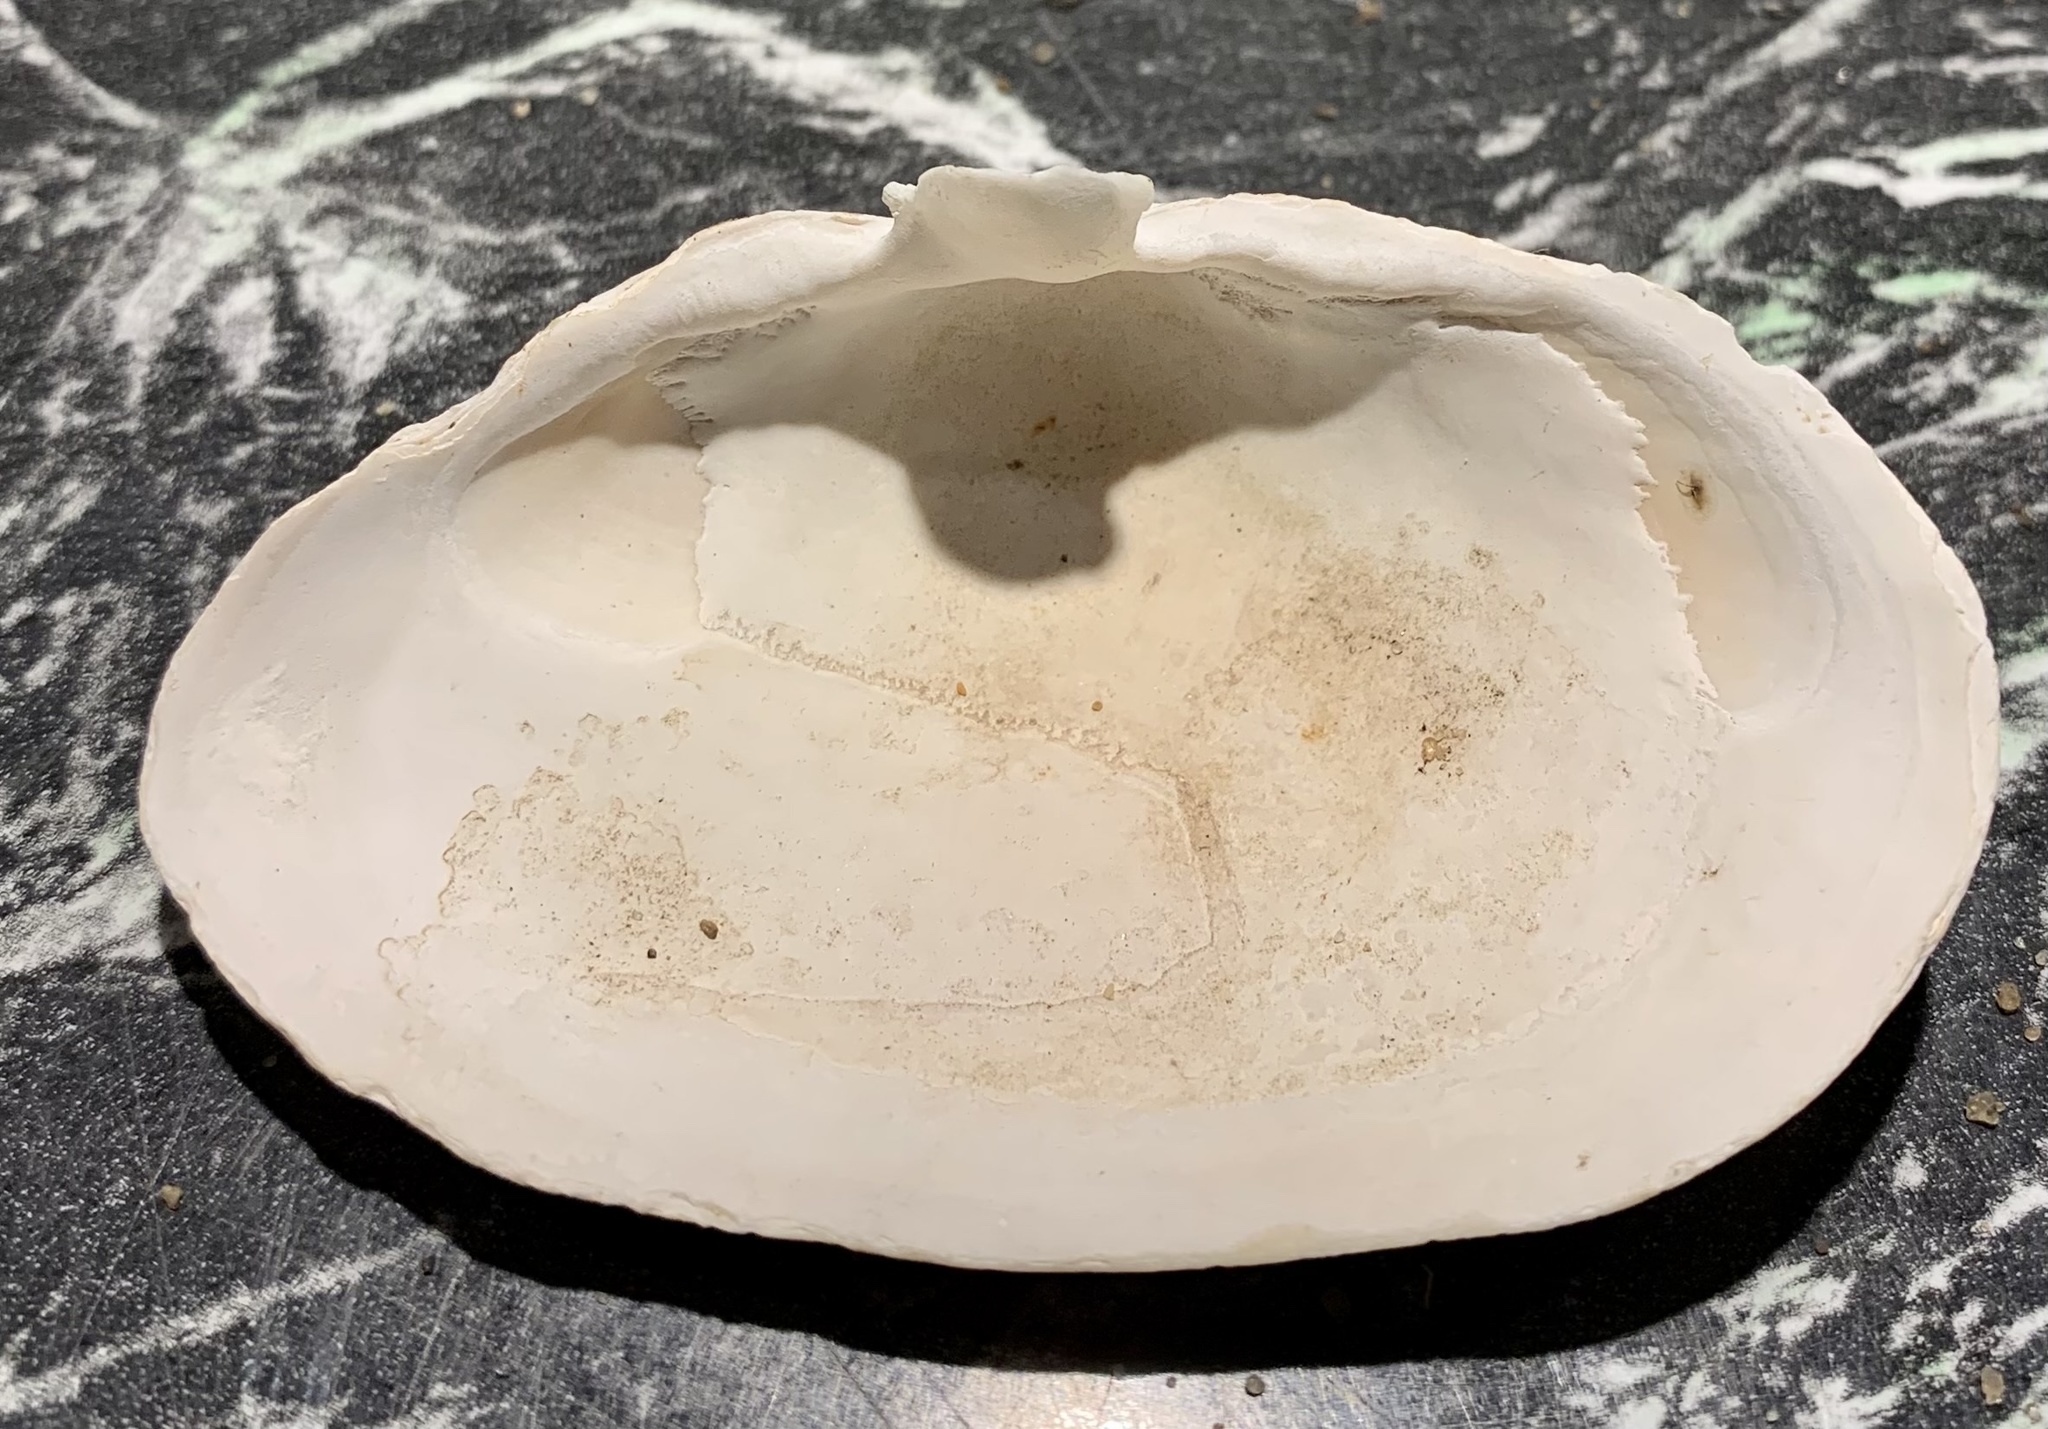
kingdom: Animalia
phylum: Mollusca
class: Bivalvia
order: Myida
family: Myidae
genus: Mya
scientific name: Mya arenaria
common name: Soft-shelled clam
